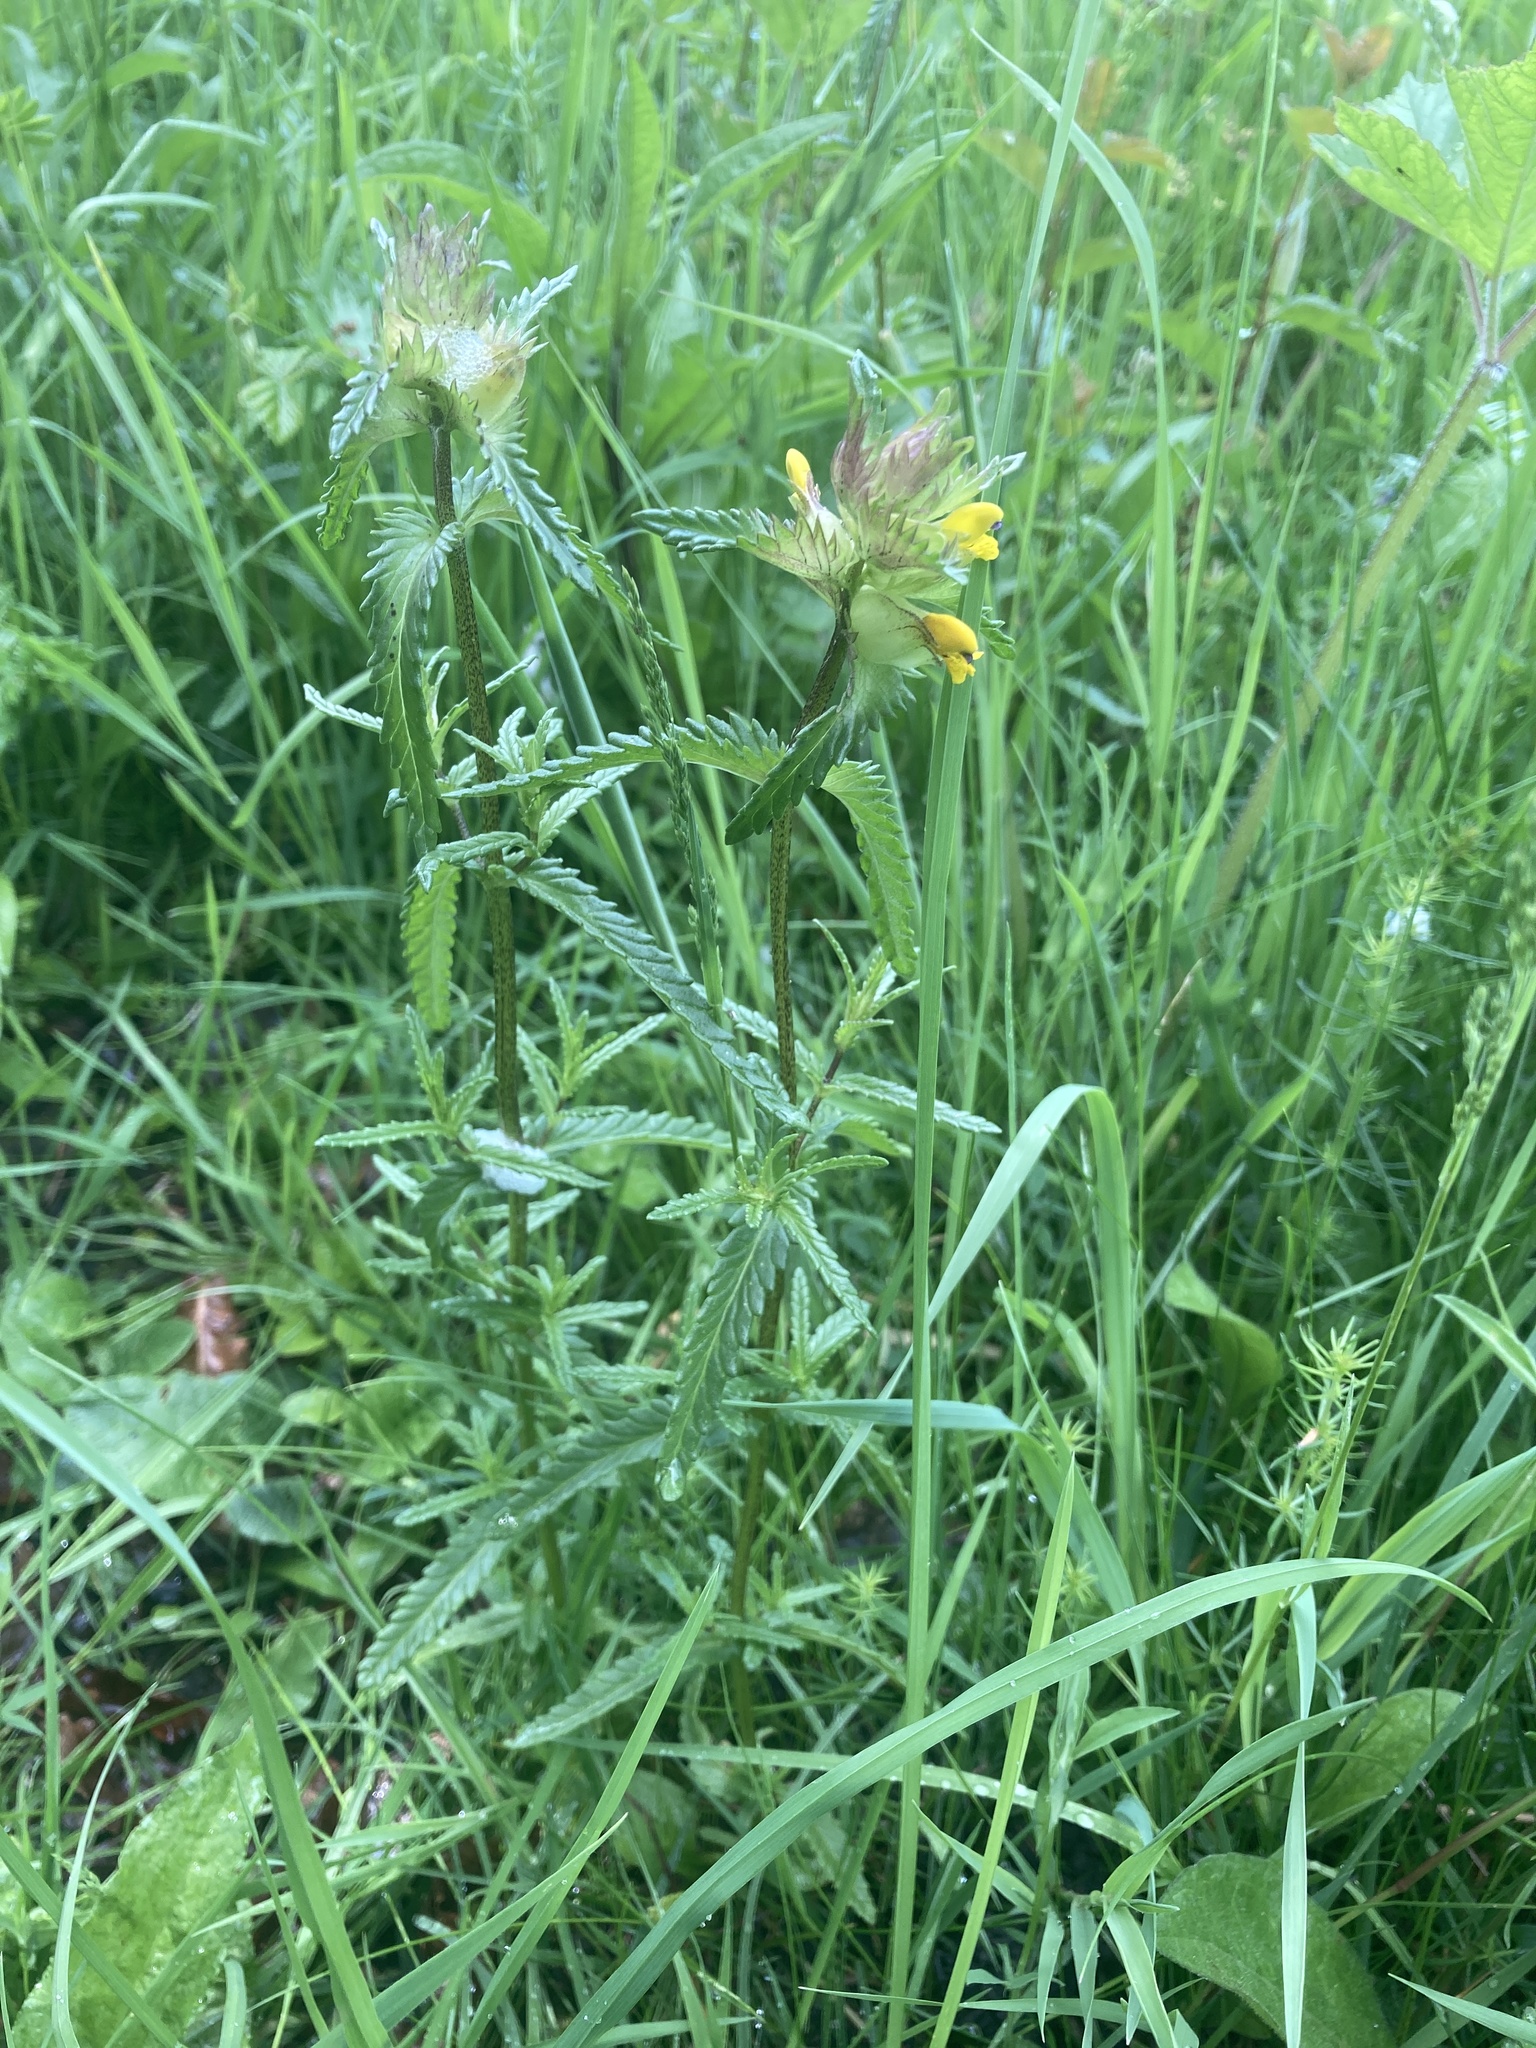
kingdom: Plantae
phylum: Tracheophyta
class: Magnoliopsida
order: Lamiales
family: Orobanchaceae
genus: Rhinanthus
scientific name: Rhinanthus minor
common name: Yellow-rattle
